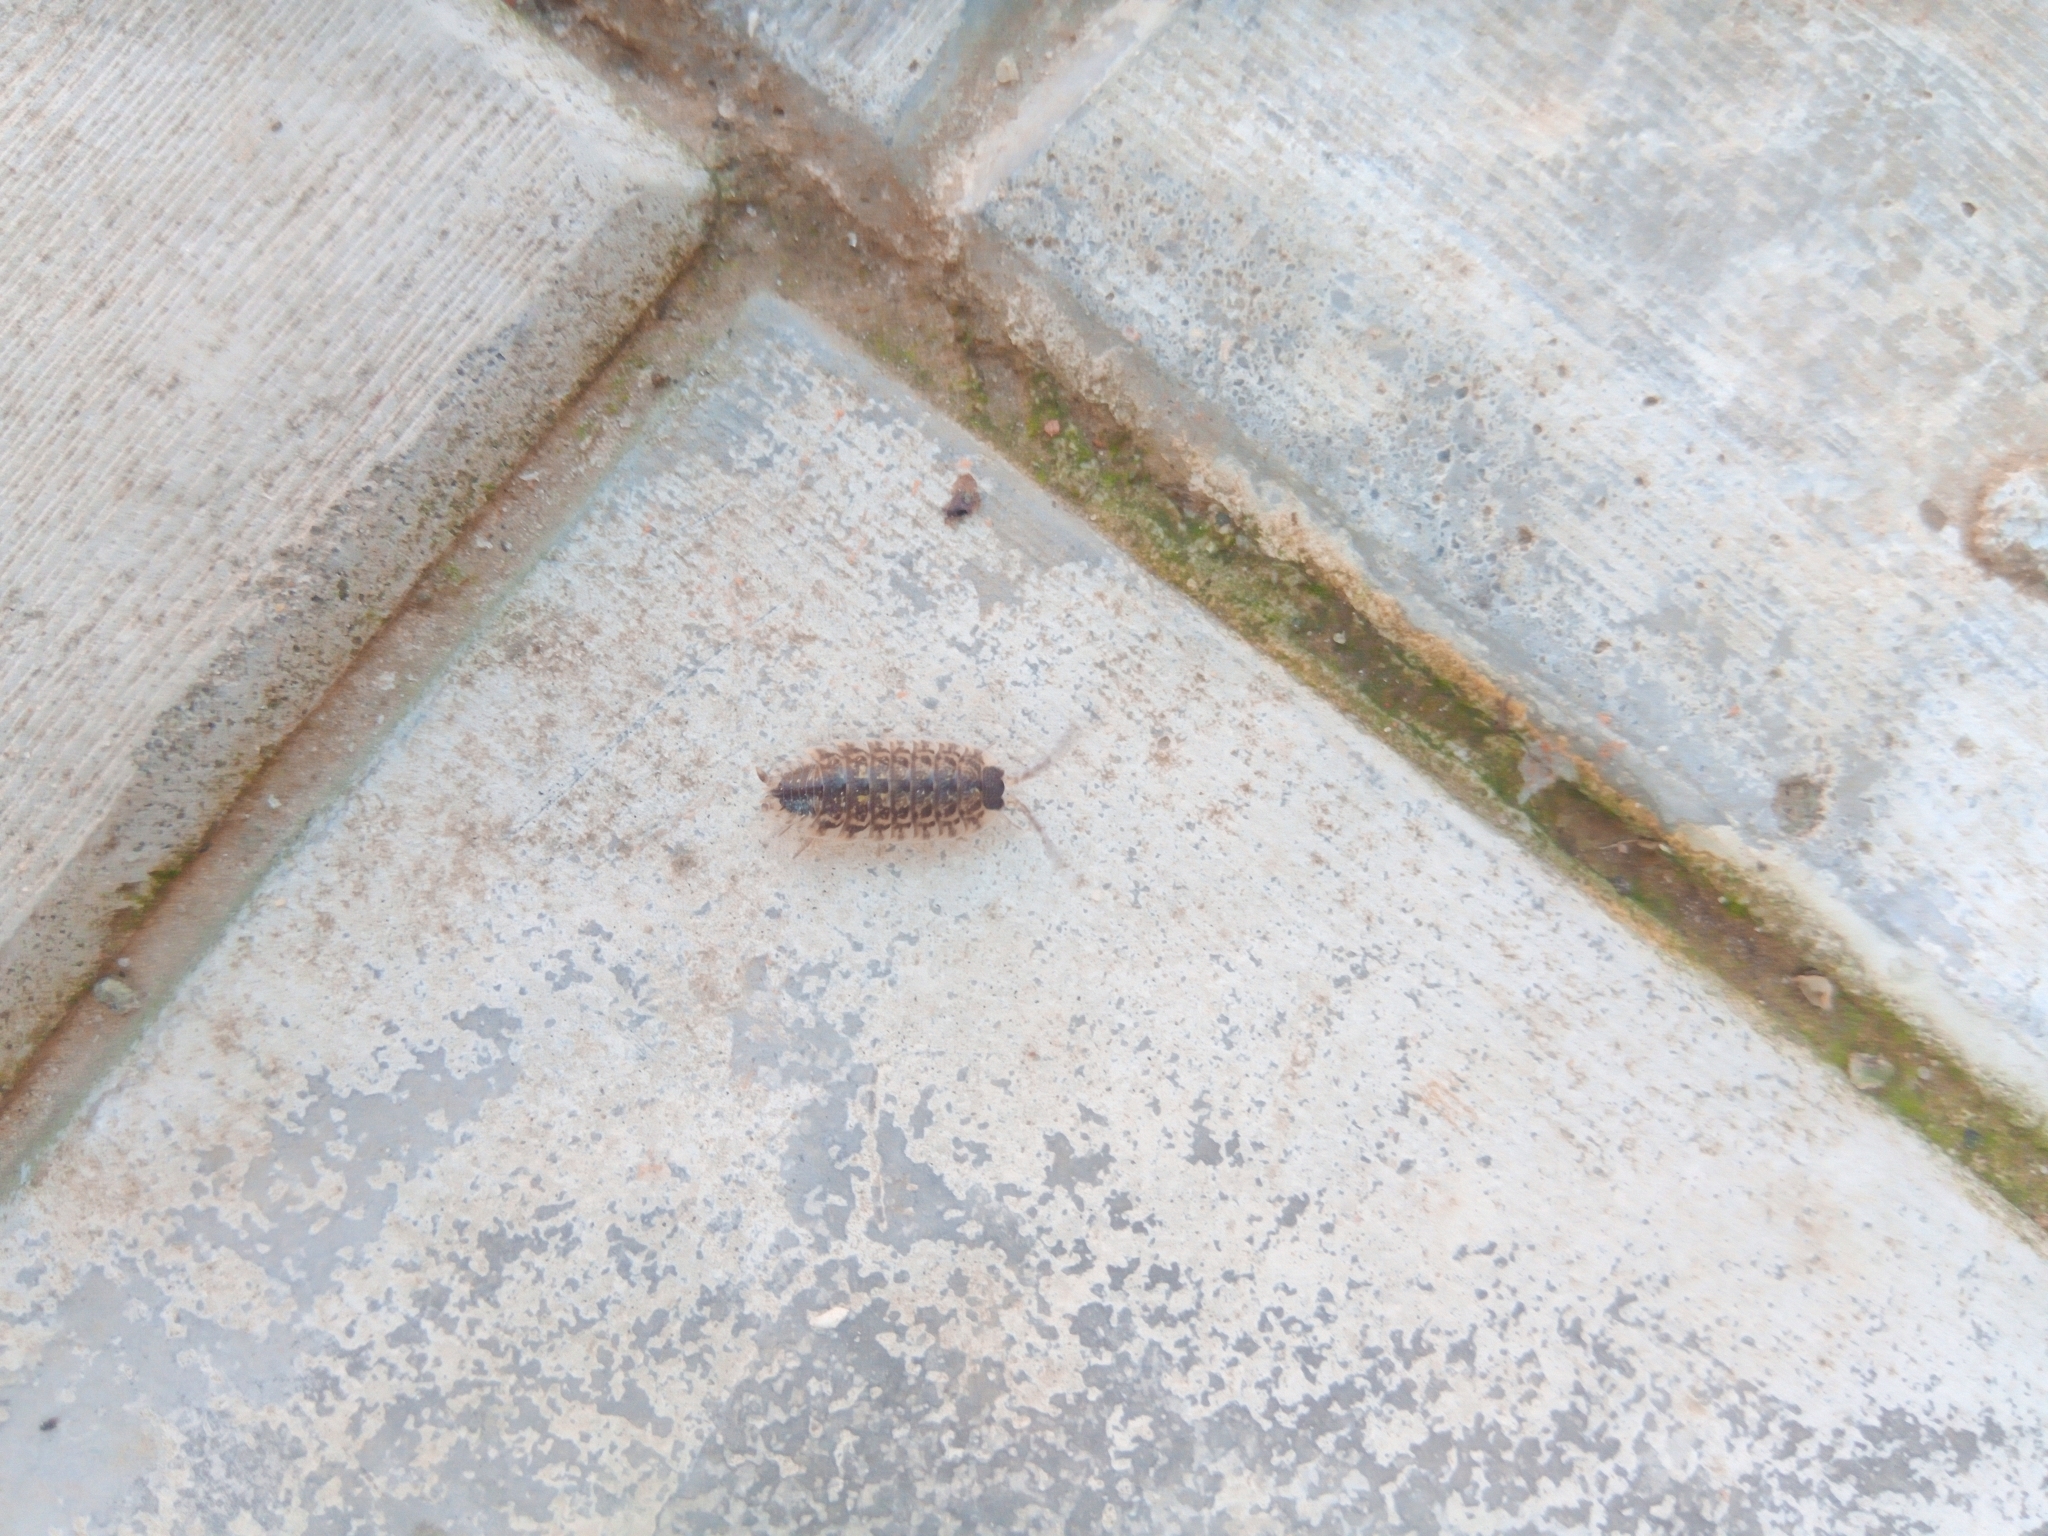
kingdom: Animalia
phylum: Arthropoda
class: Malacostraca
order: Isopoda
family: Porcellionidae
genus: Porcellio
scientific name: Porcellio spinicornis
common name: Painted woodlouse
